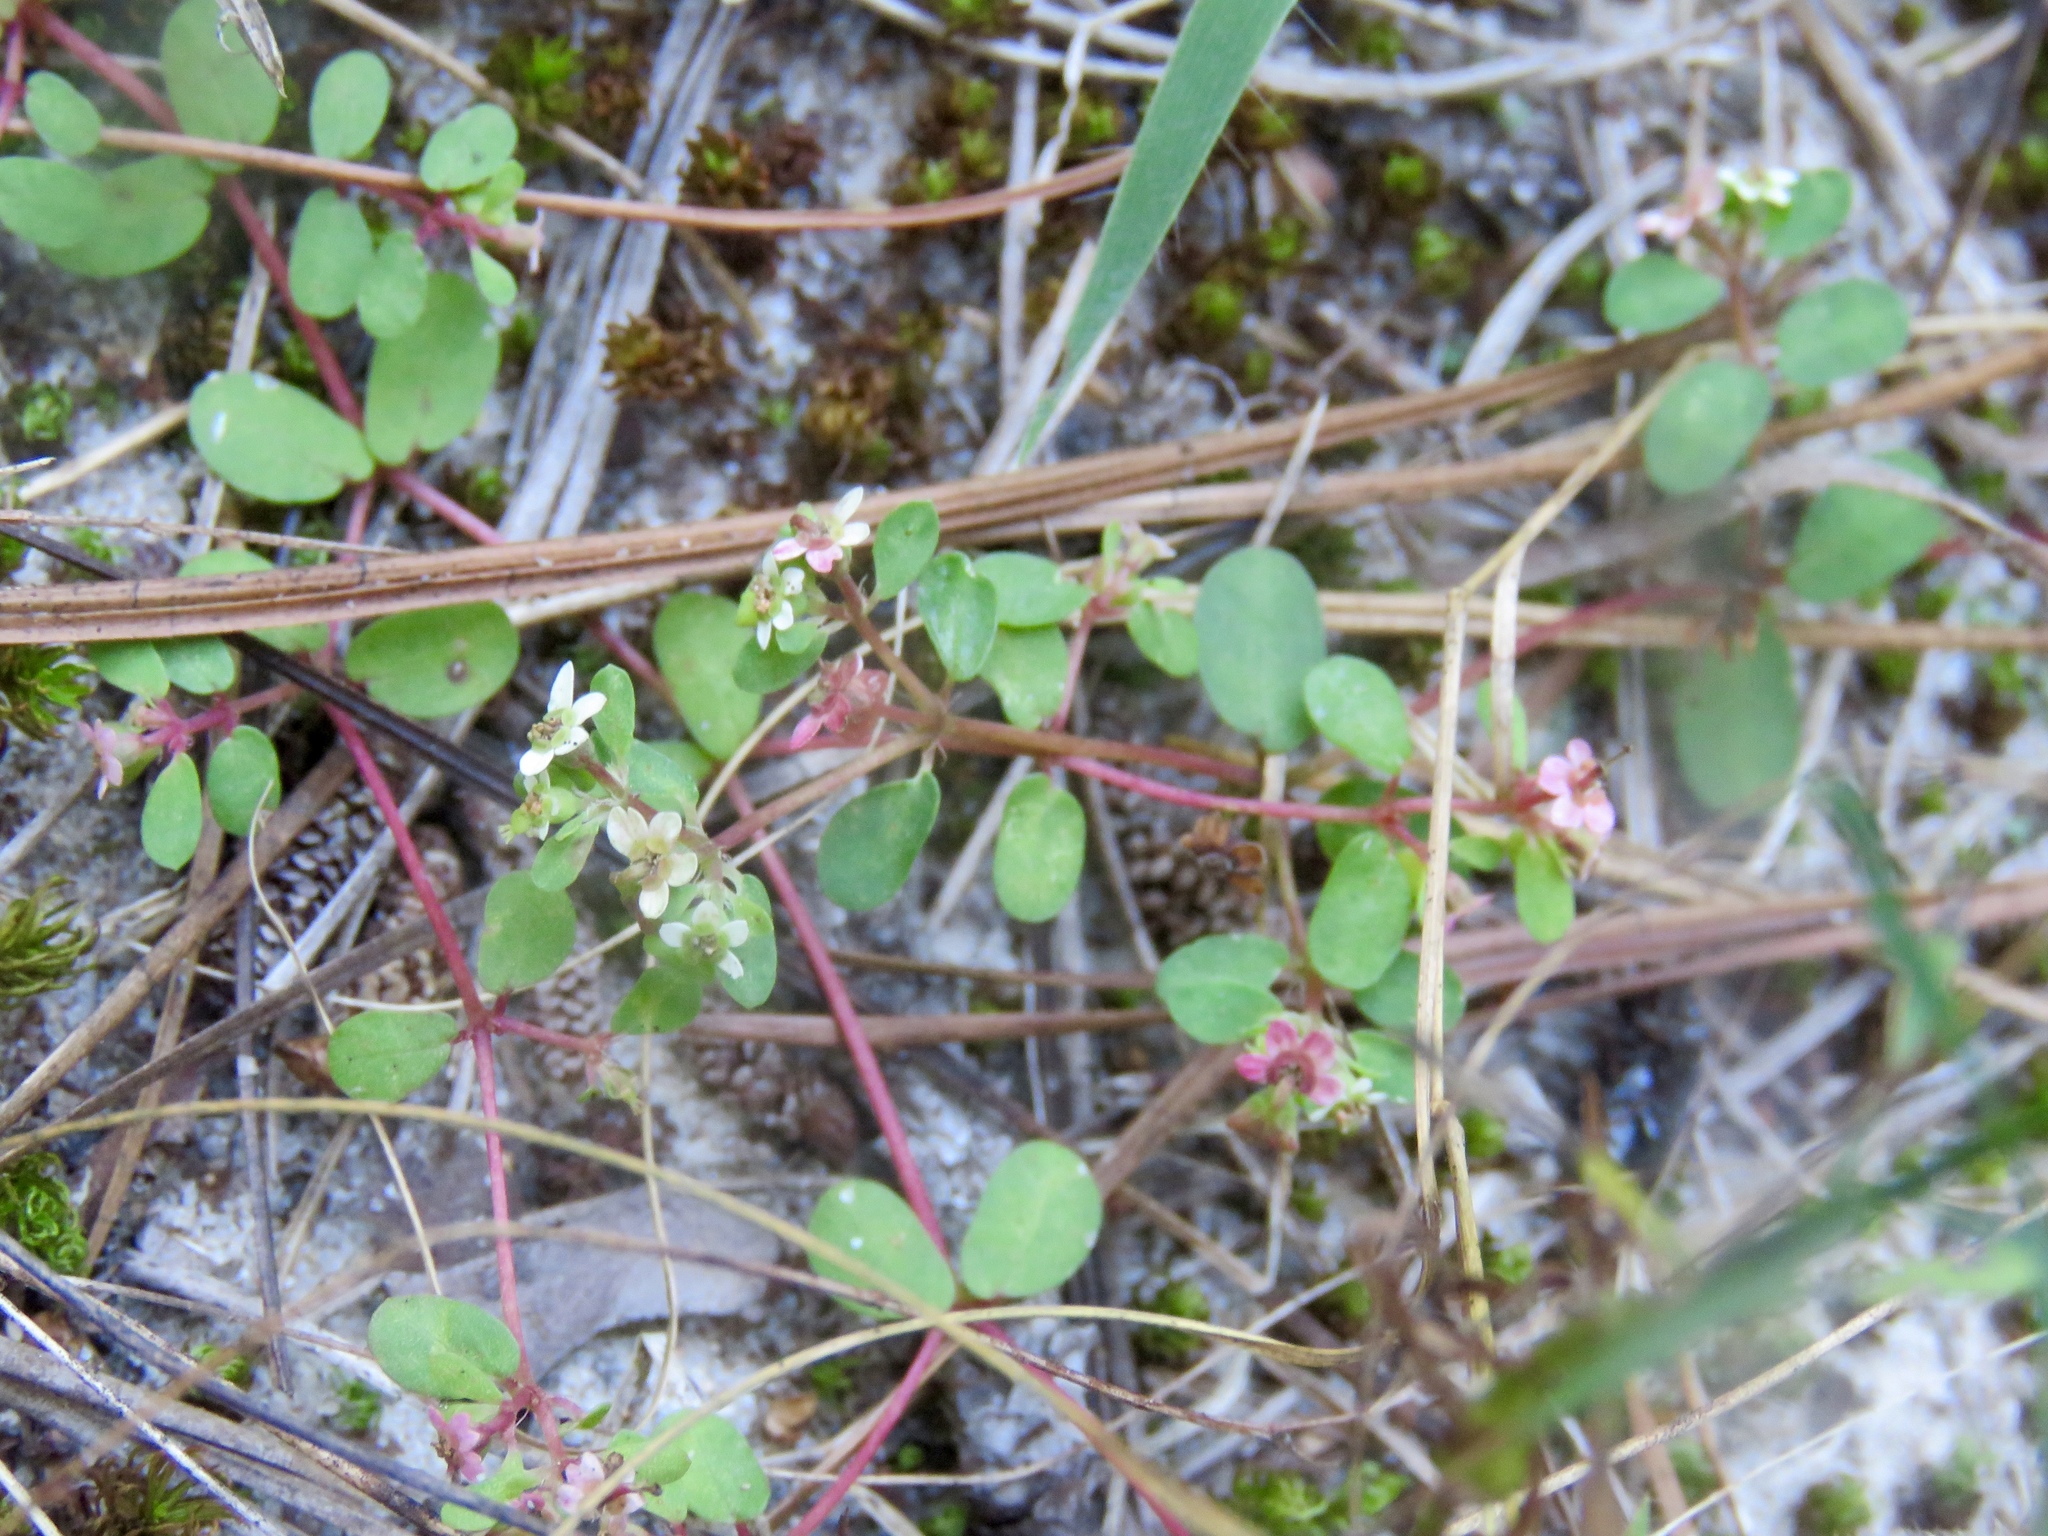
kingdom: Plantae
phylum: Tracheophyta
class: Magnoliopsida
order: Malpighiales
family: Euphorbiaceae
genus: Euphorbia
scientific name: Euphorbia cordifolia
